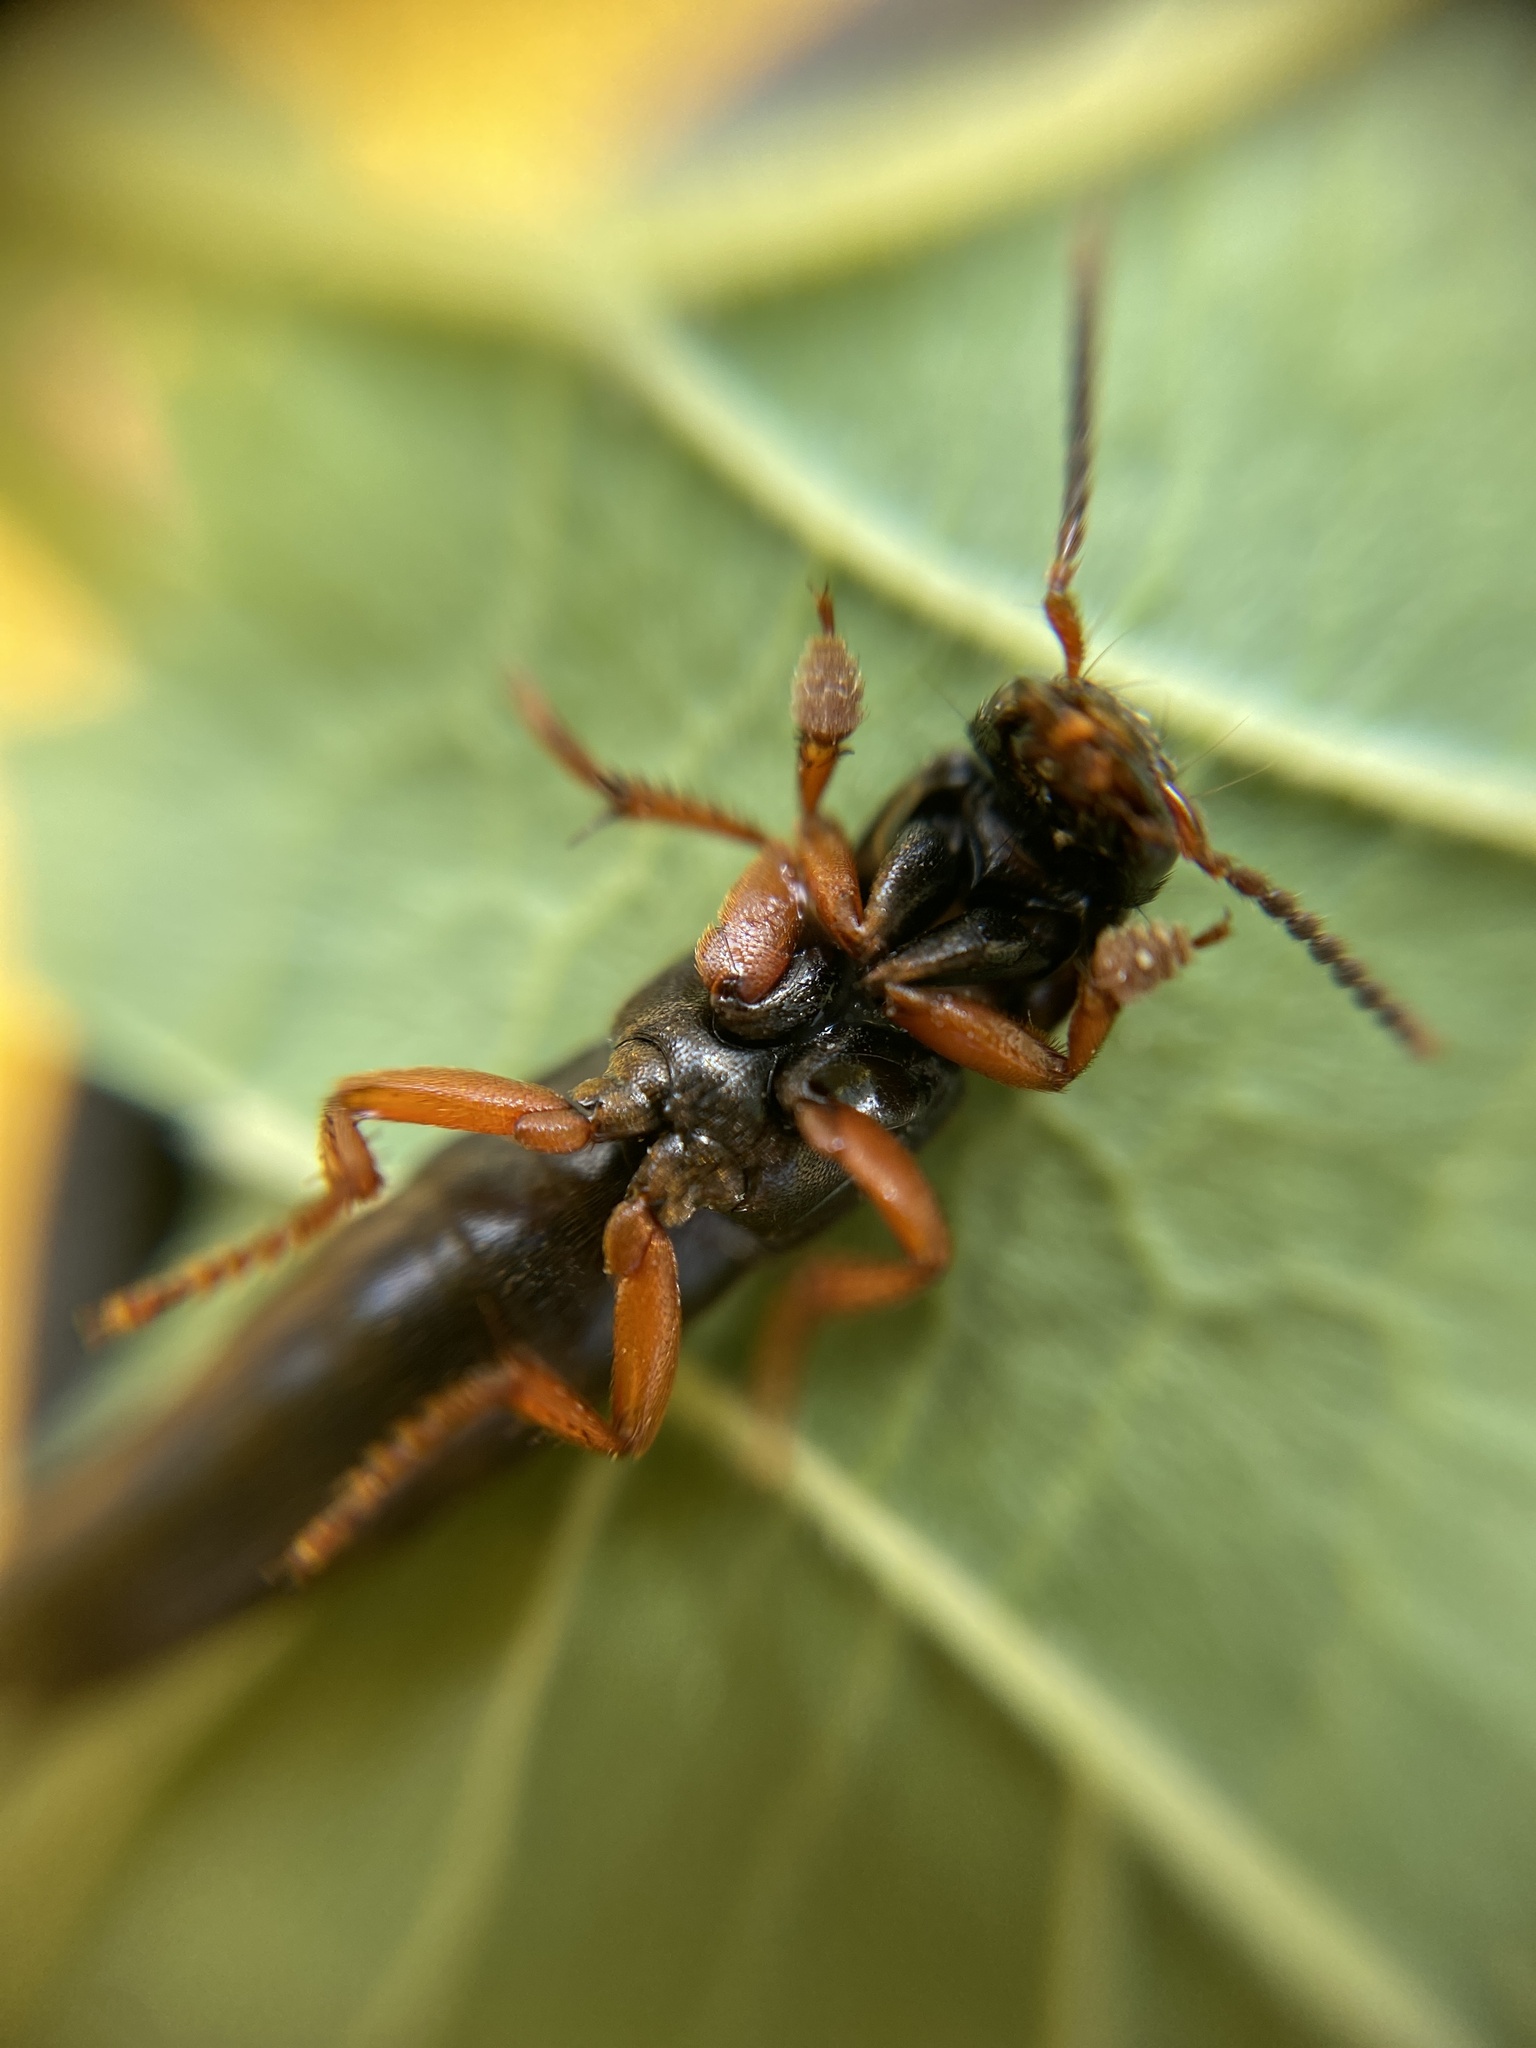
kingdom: Animalia
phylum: Arthropoda
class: Insecta
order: Coleoptera
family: Staphylinidae
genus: Platydracus
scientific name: Platydracus fulvipes
